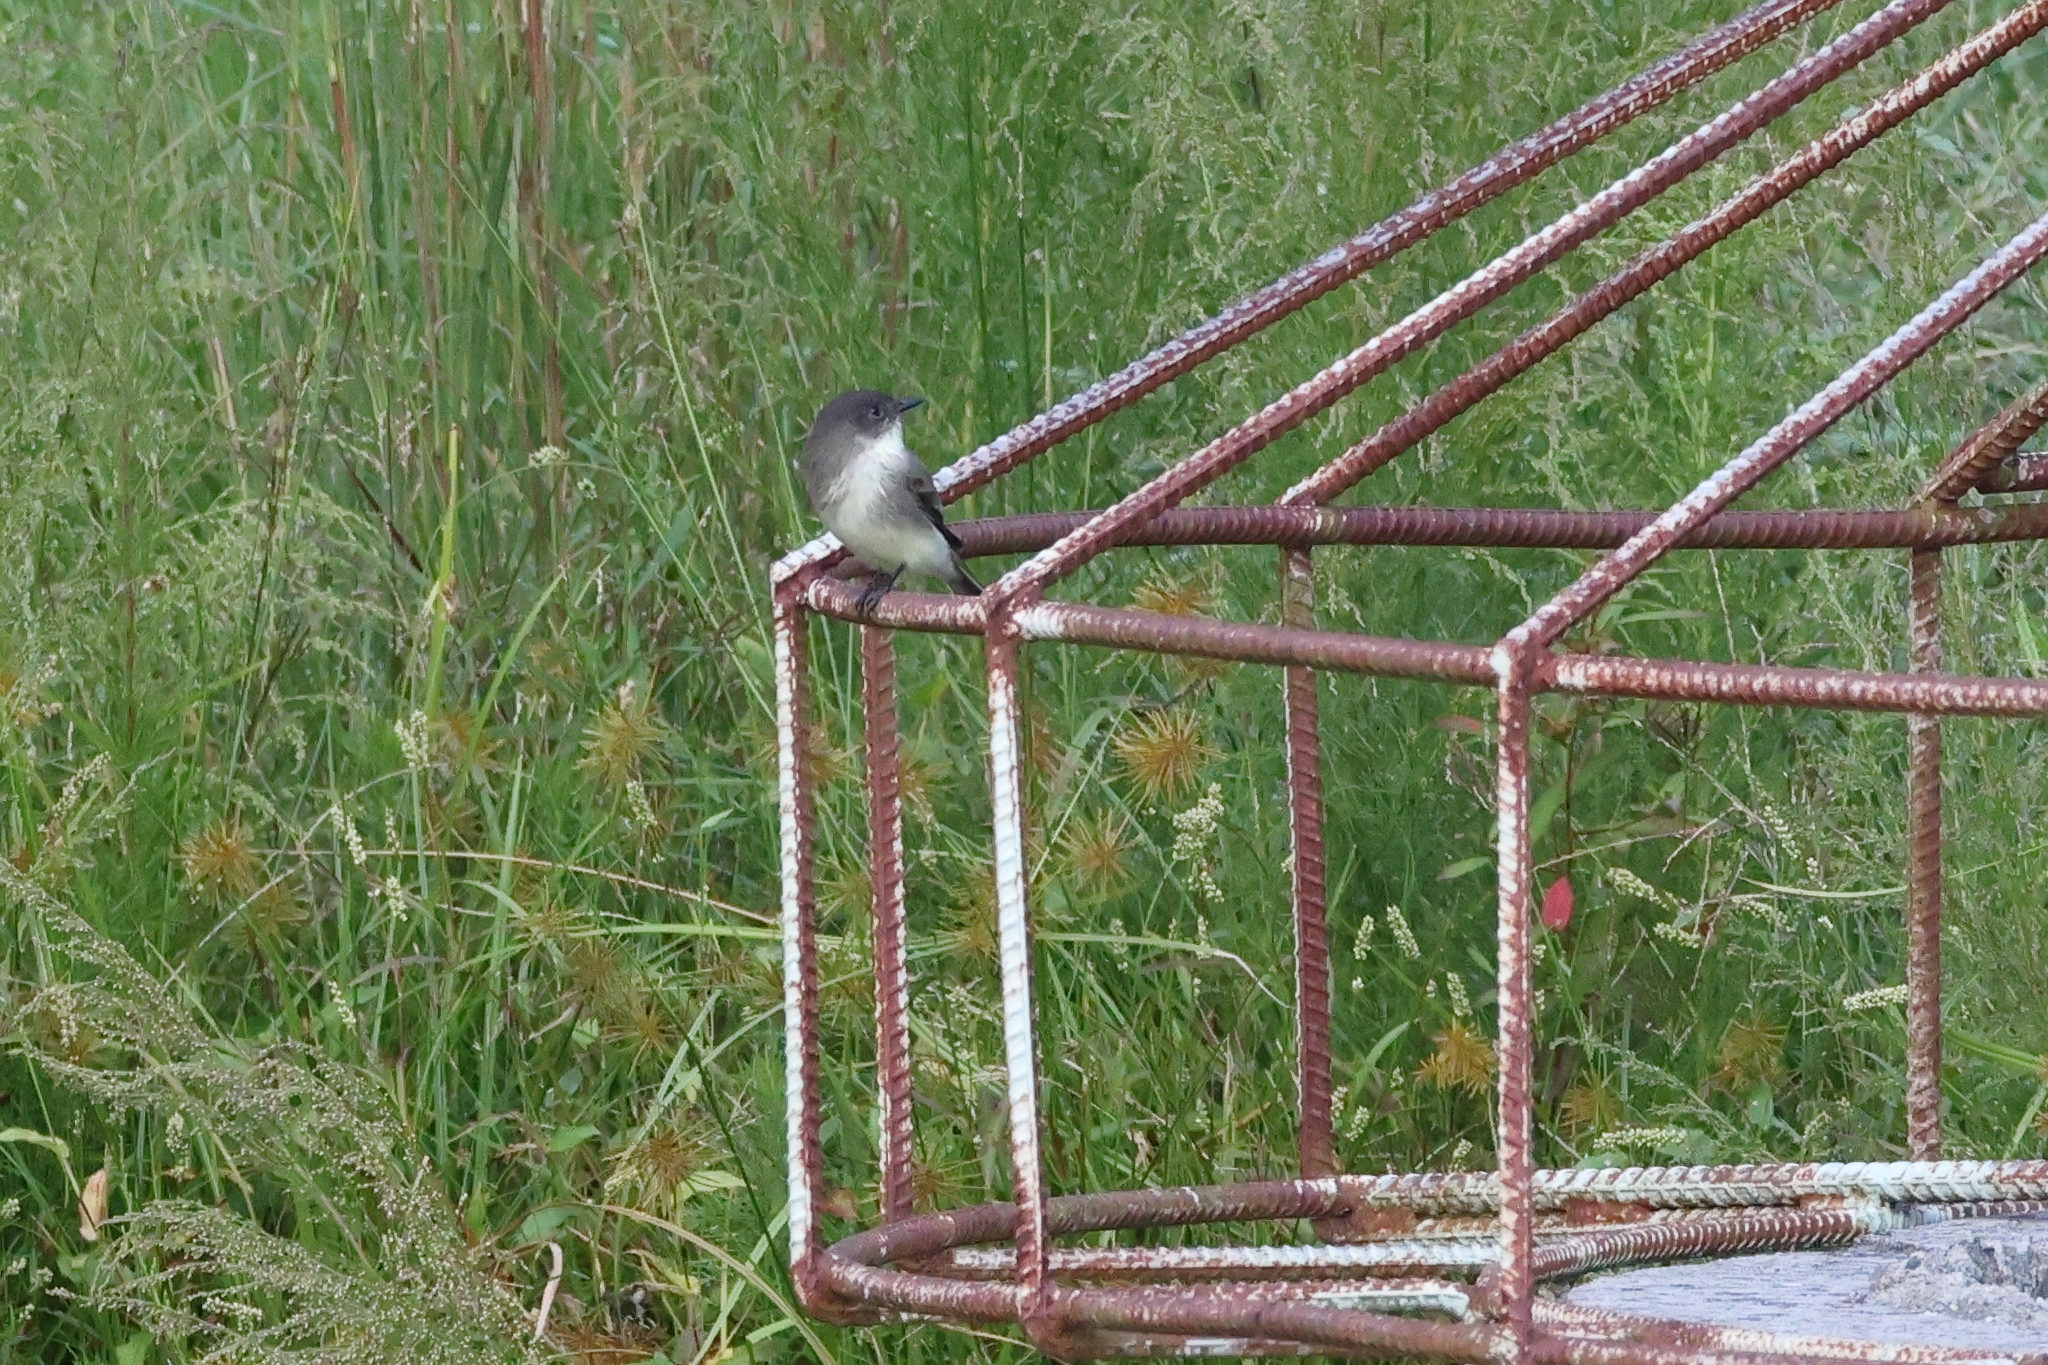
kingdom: Animalia
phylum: Chordata
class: Aves
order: Passeriformes
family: Tyrannidae
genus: Sayornis
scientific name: Sayornis phoebe
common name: Eastern phoebe
